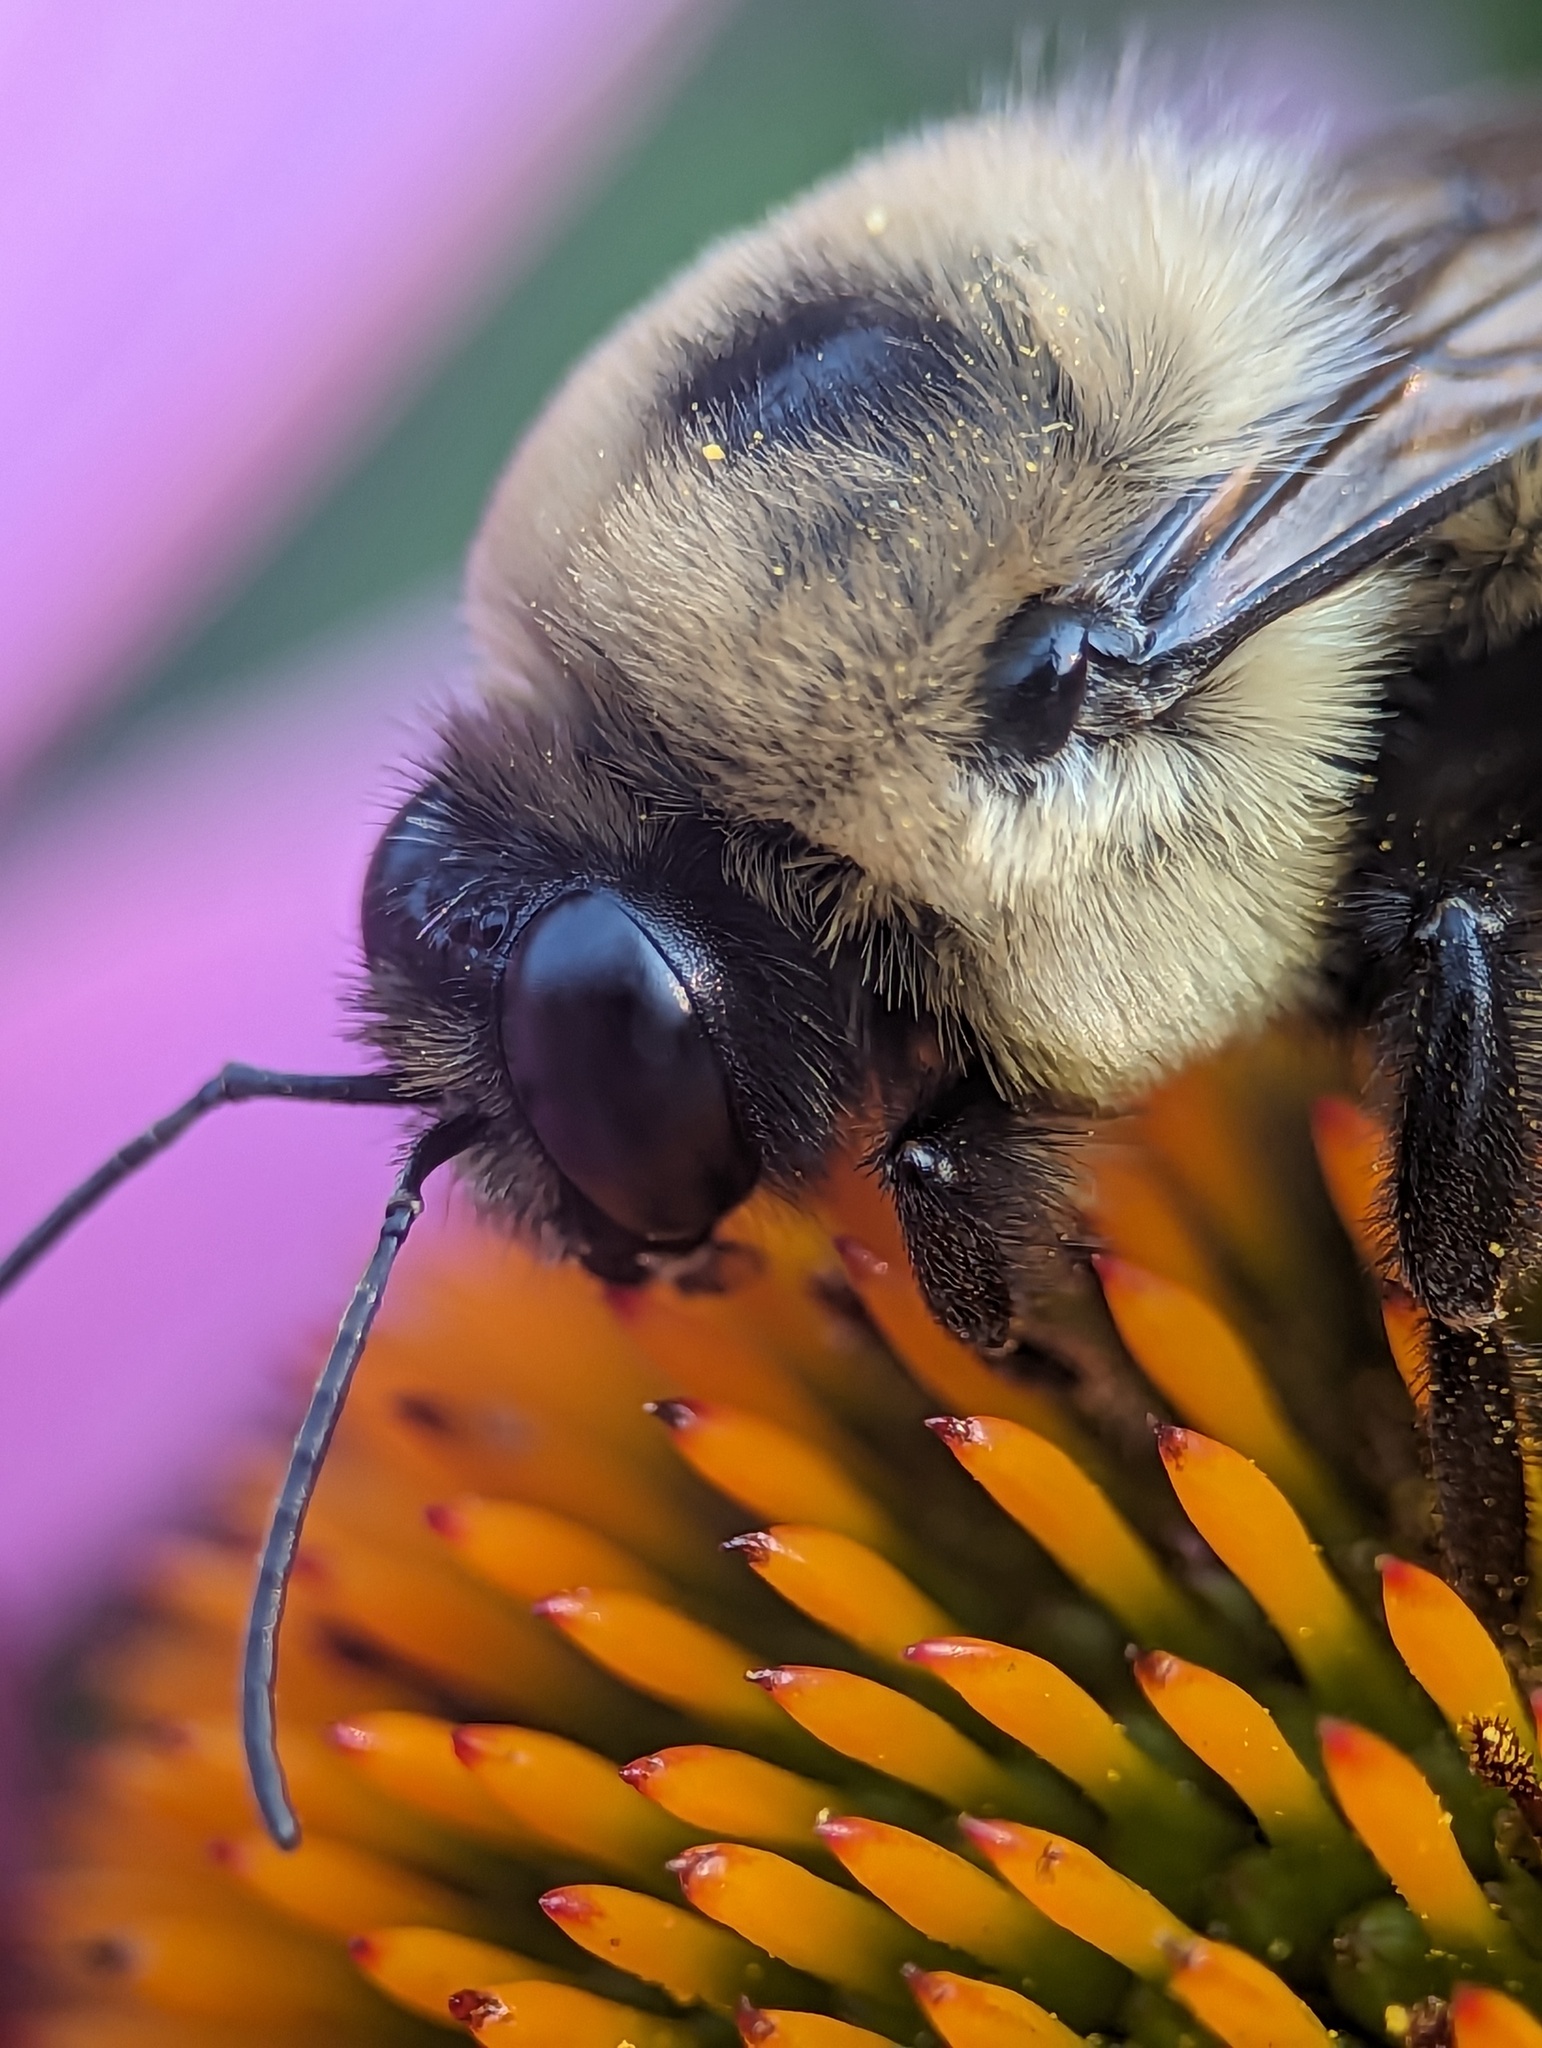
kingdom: Animalia
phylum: Arthropoda
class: Insecta
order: Hymenoptera
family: Apidae
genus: Bombus
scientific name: Bombus griseocollis
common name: Brown-belted bumble bee
